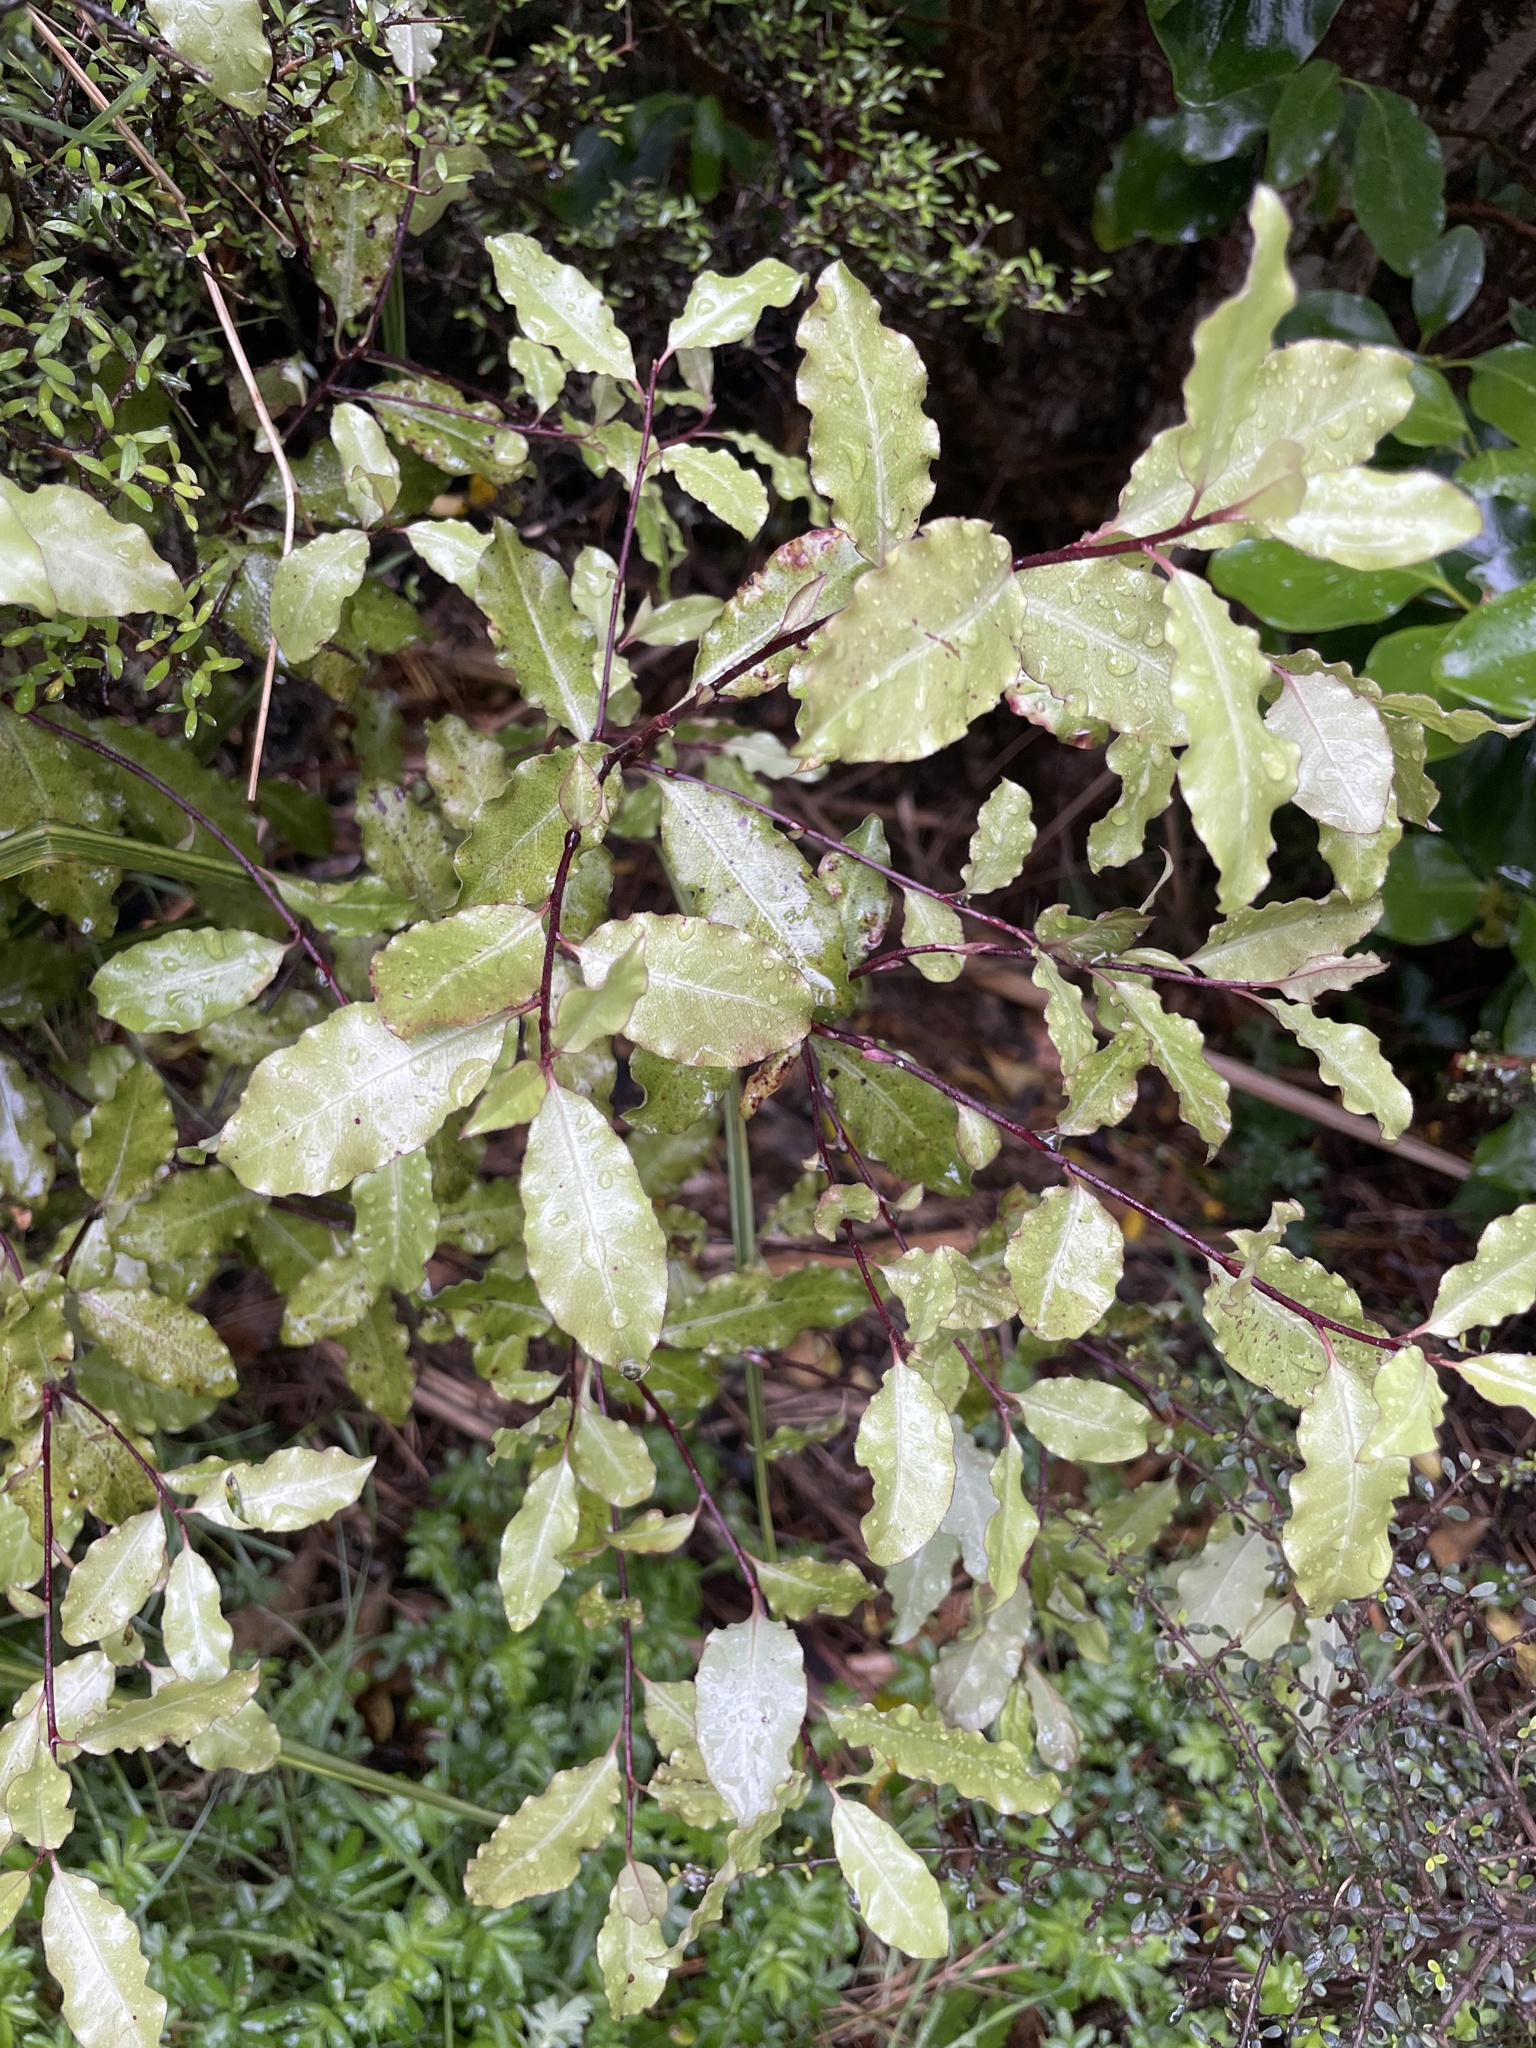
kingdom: Plantae
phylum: Tracheophyta
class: Magnoliopsida
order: Apiales
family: Pittosporaceae
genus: Pittosporum
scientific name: Pittosporum tenuifolium
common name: Kohuhu
